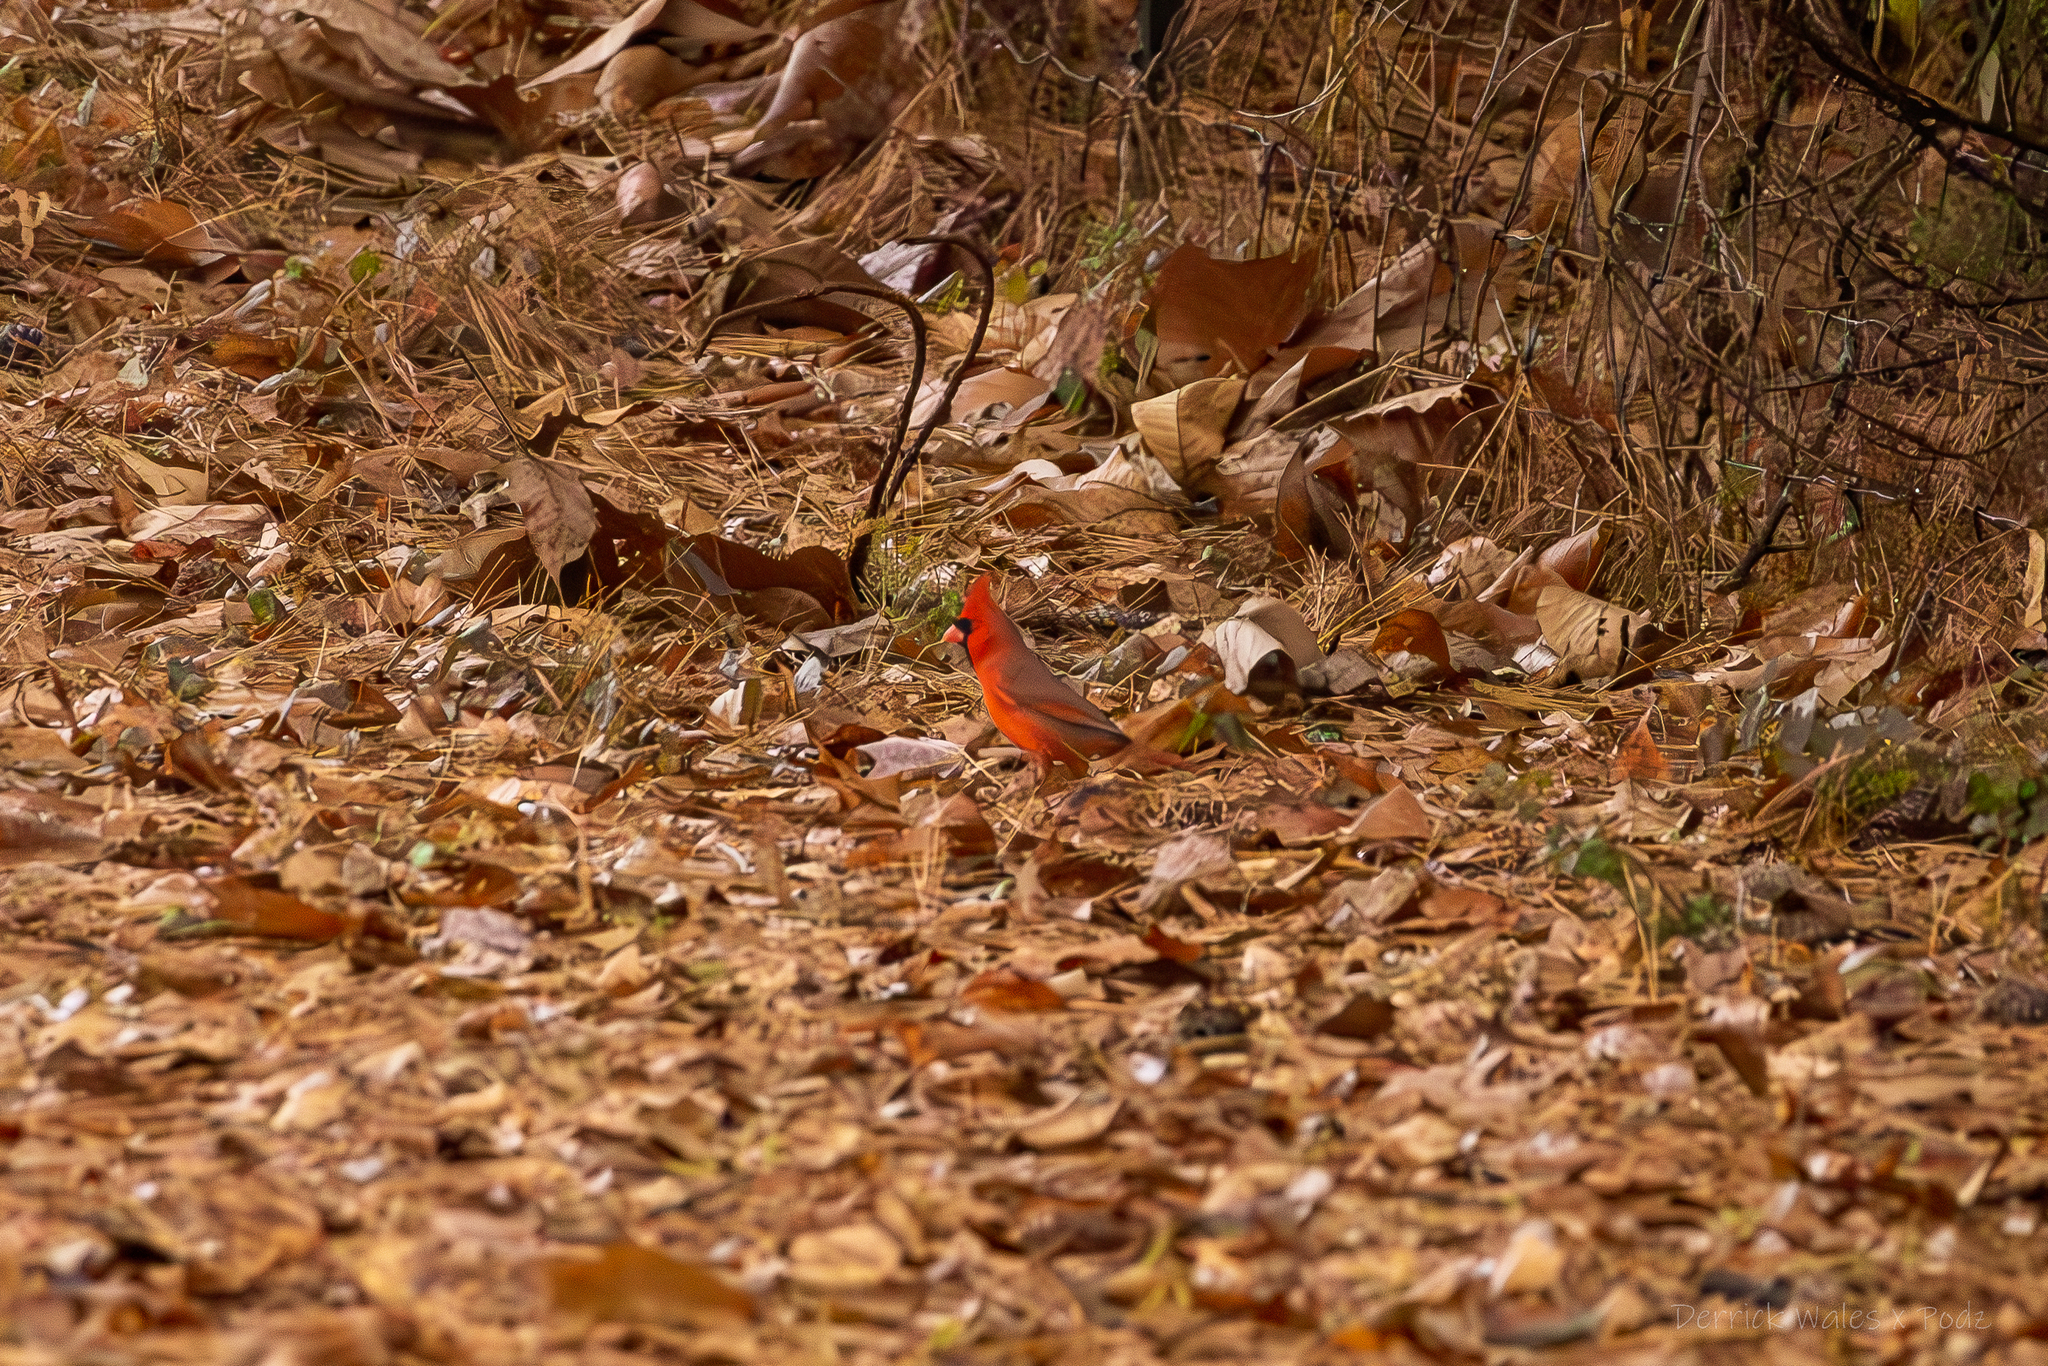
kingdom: Animalia
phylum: Chordata
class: Aves
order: Passeriformes
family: Cardinalidae
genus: Cardinalis
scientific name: Cardinalis cardinalis
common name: Northern cardinal
